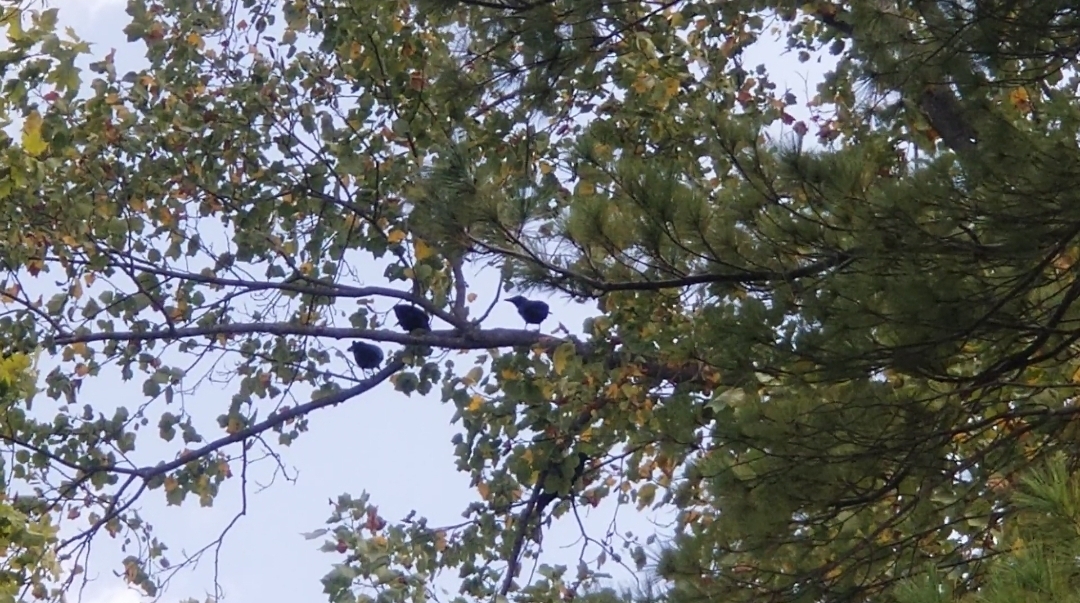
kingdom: Animalia
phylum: Chordata
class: Aves
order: Passeriformes
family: Corvidae
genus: Corvus
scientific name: Corvus brachyrhynchos
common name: American crow
